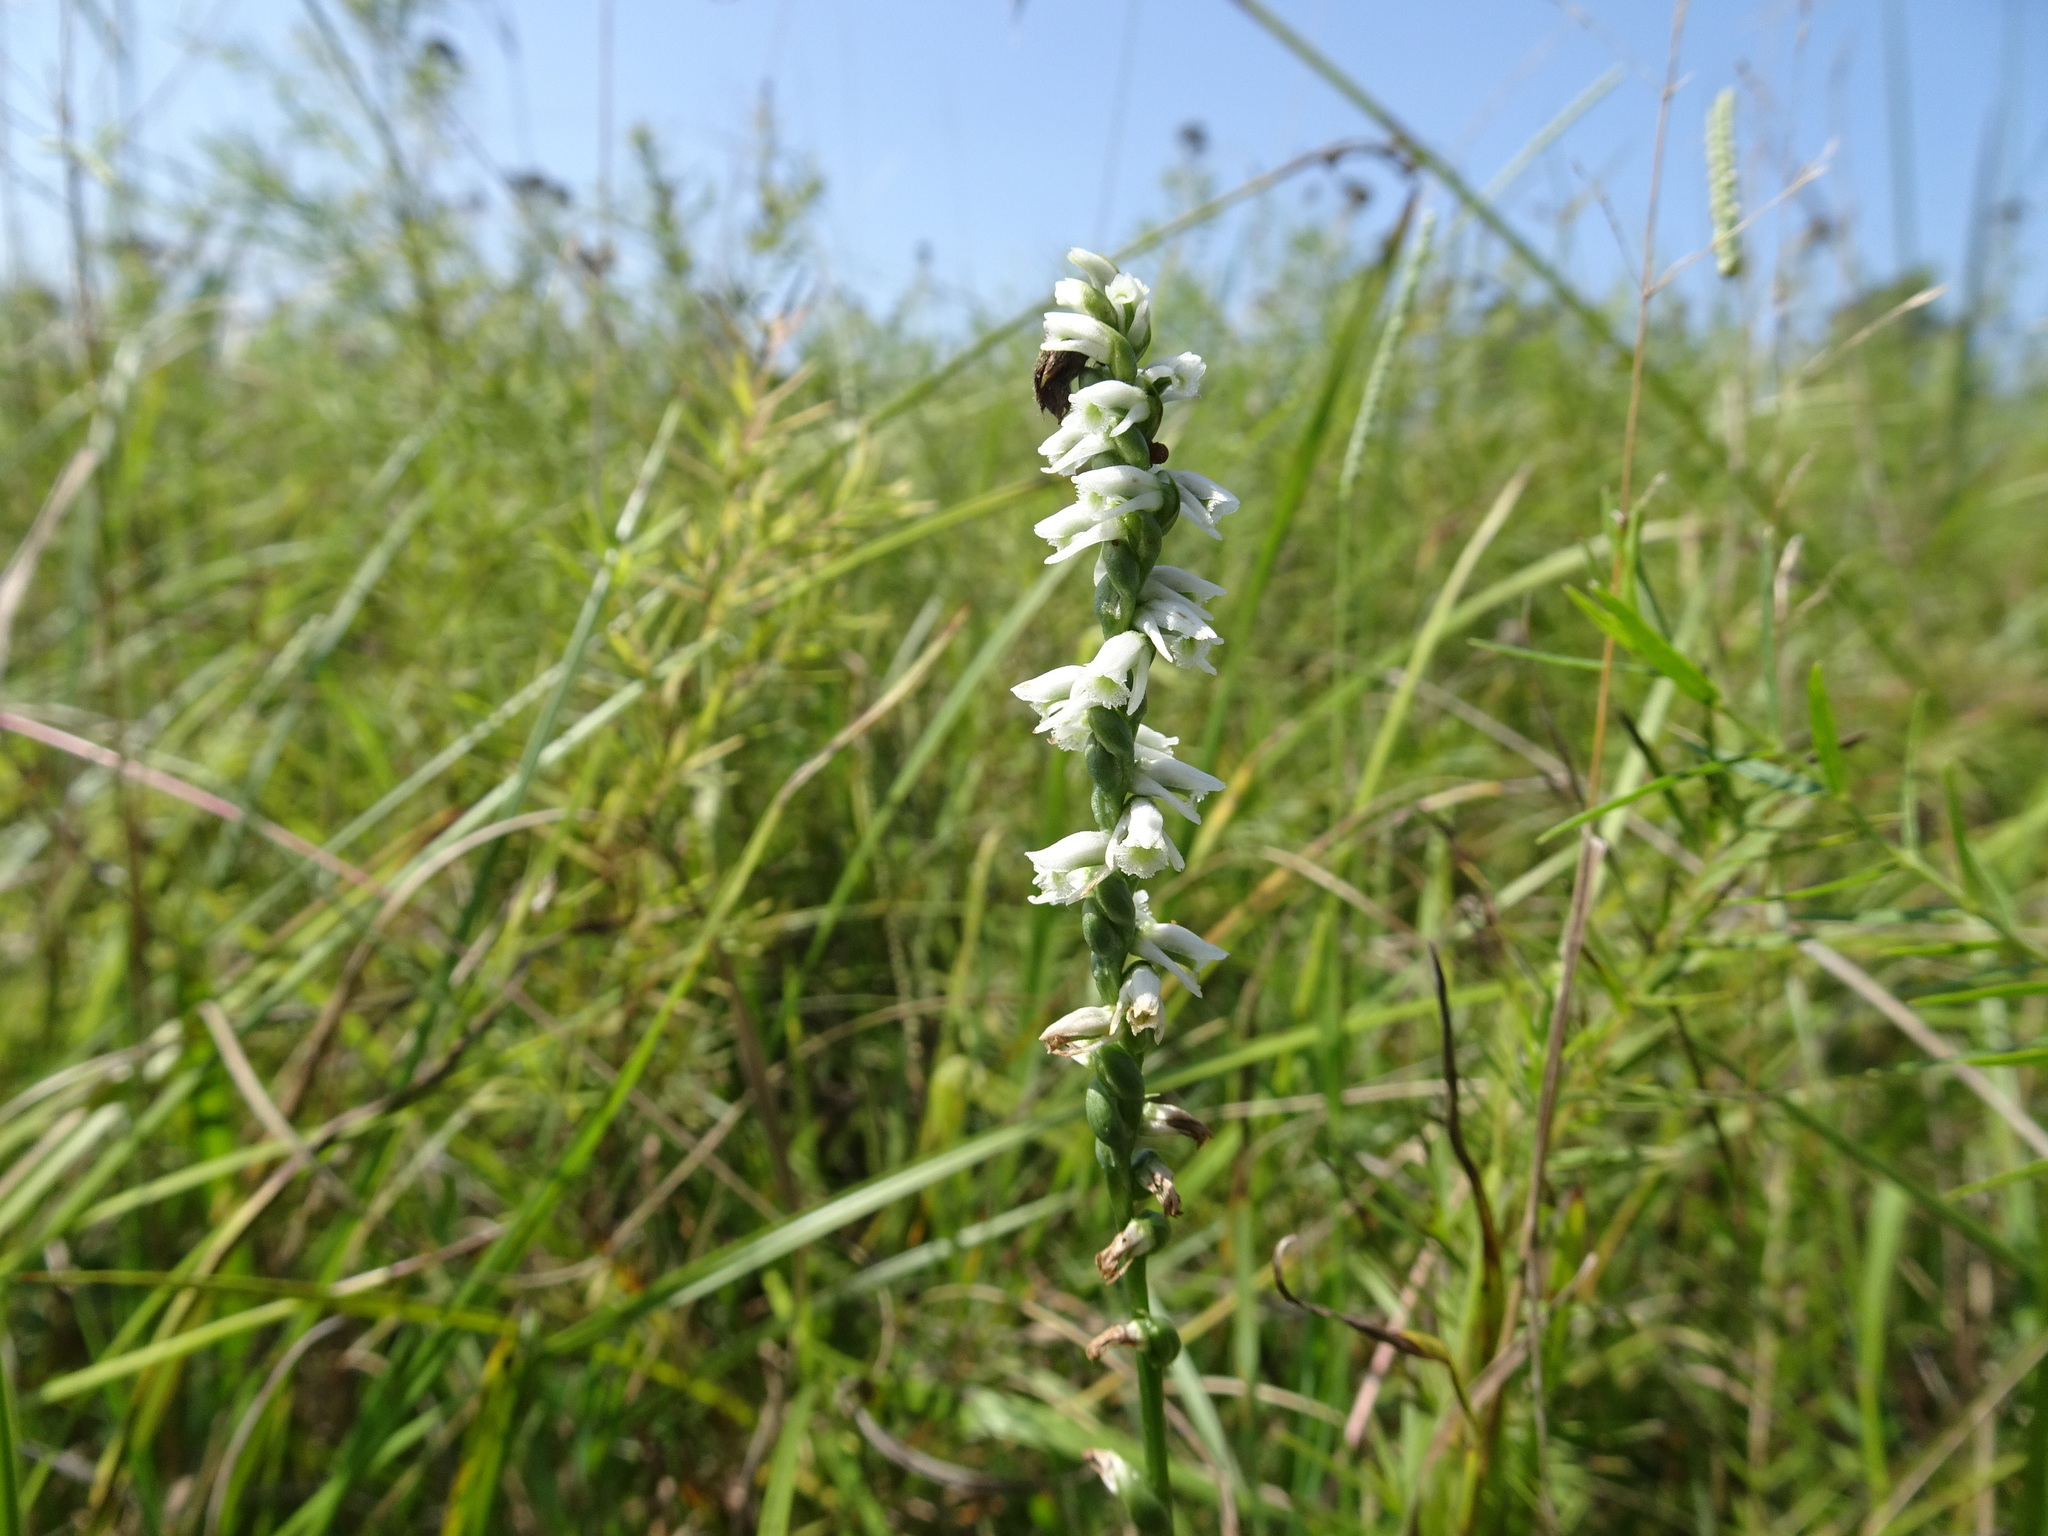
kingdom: Plantae
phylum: Tracheophyta
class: Liliopsida
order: Asparagales
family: Orchidaceae
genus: Spiranthes
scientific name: Spiranthes lacera
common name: Northern slender ladies'-tresses
